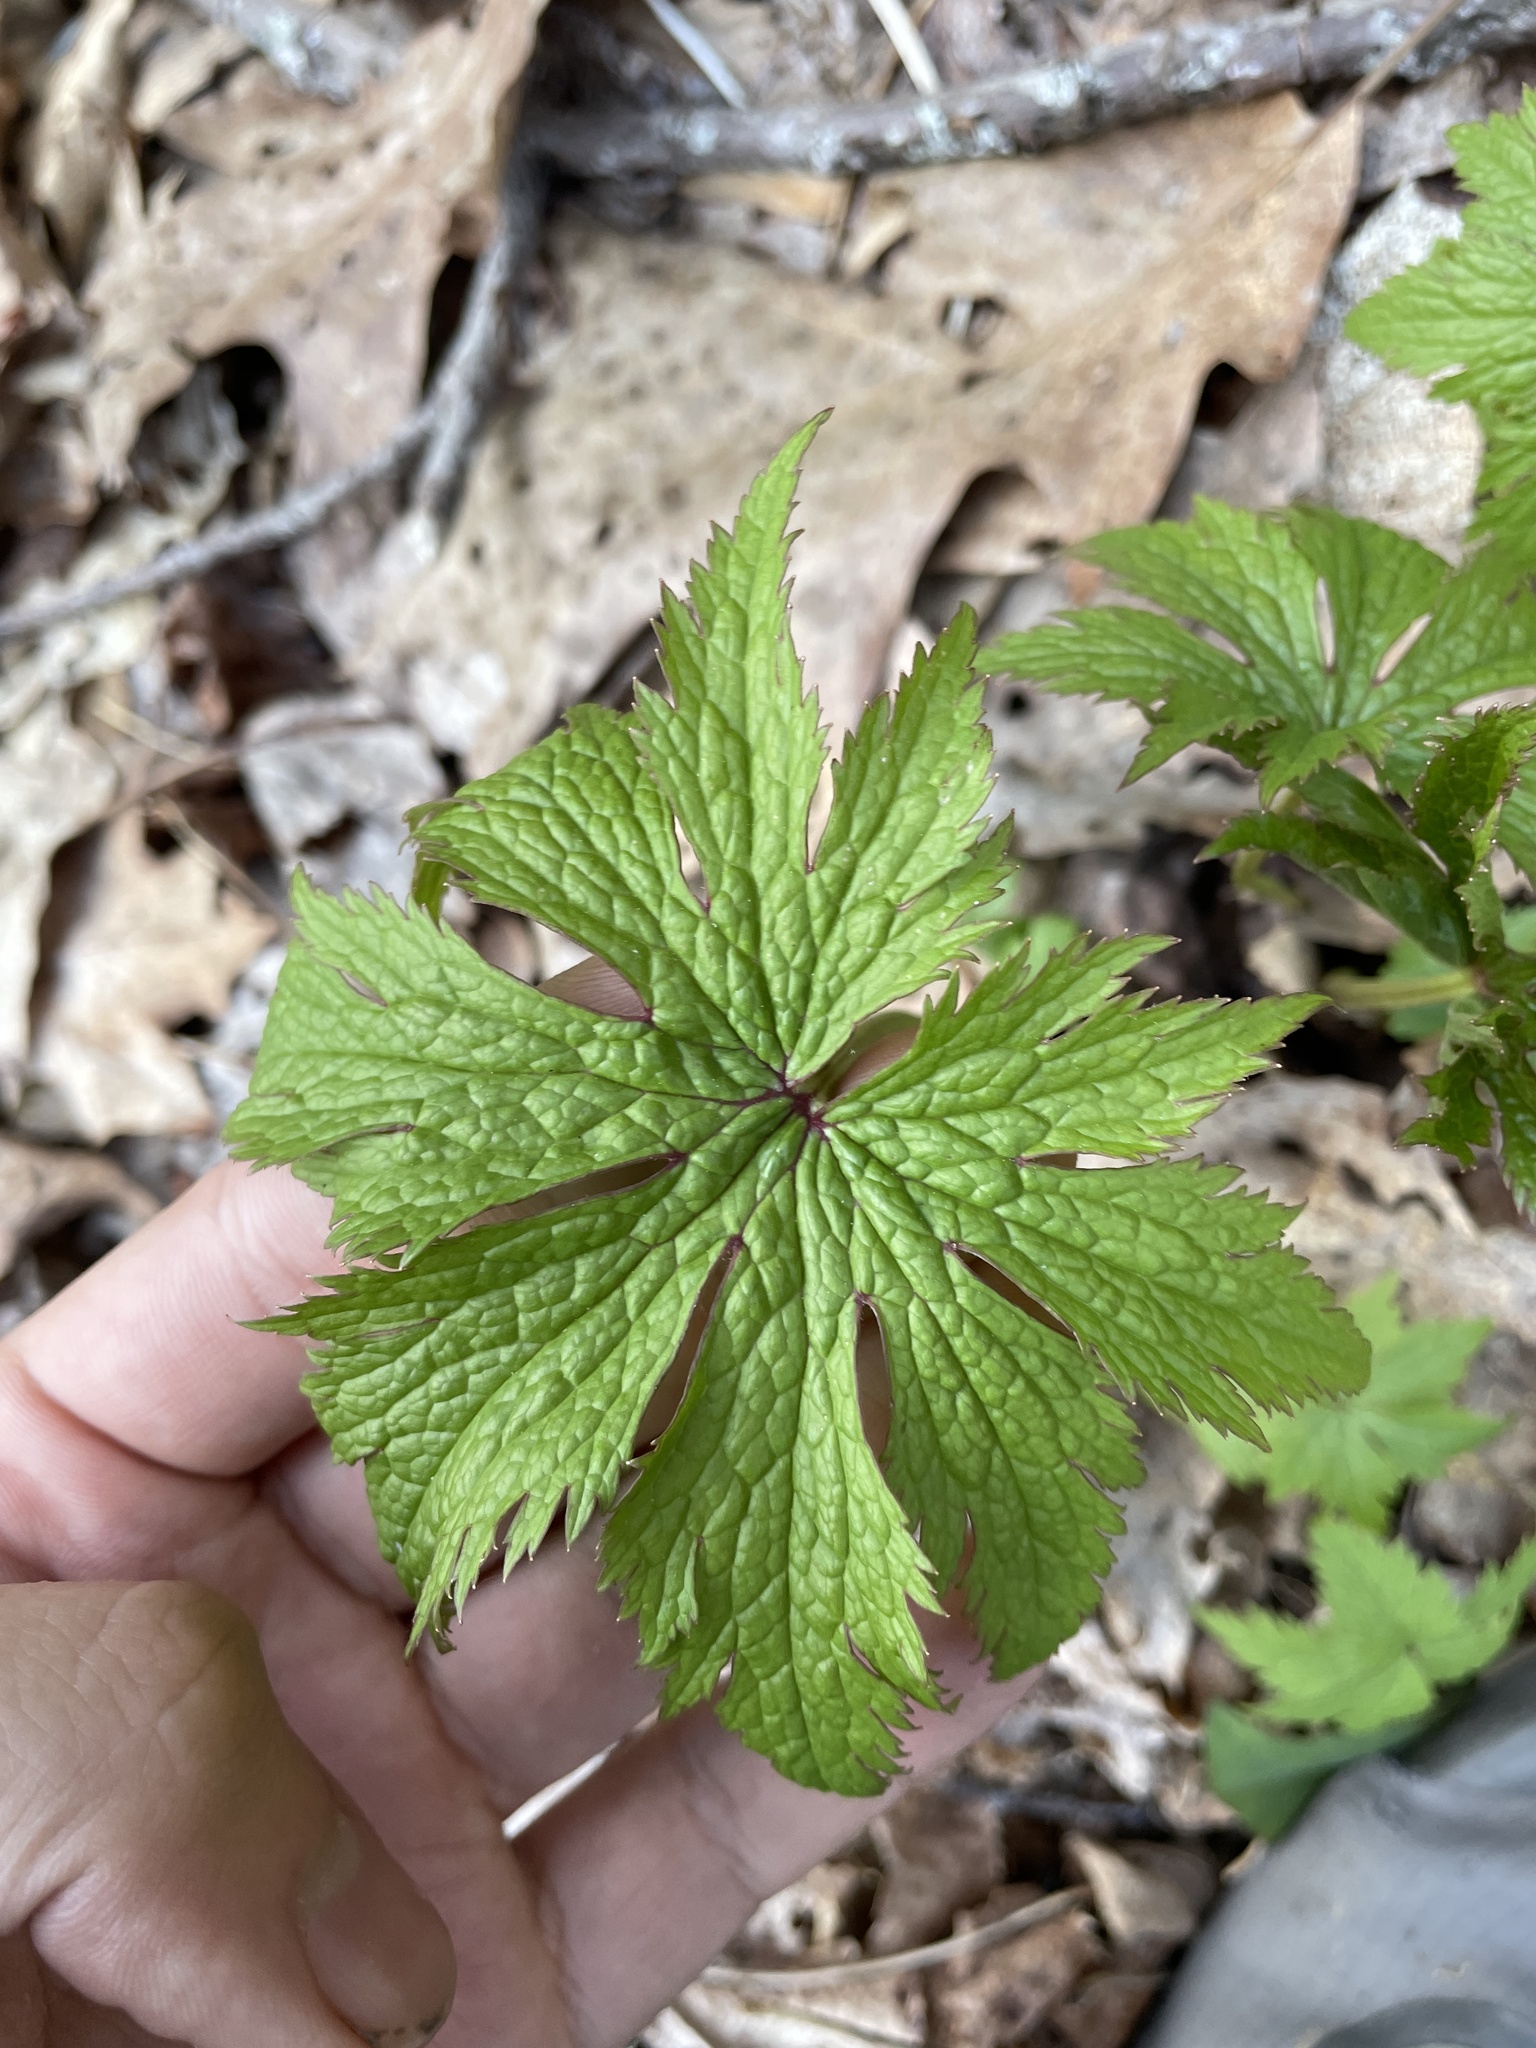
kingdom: Plantae
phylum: Tracheophyta
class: Magnoliopsida
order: Ranunculales
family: Ranunculaceae
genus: Trautvetteria
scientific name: Trautvetteria carolinensis
